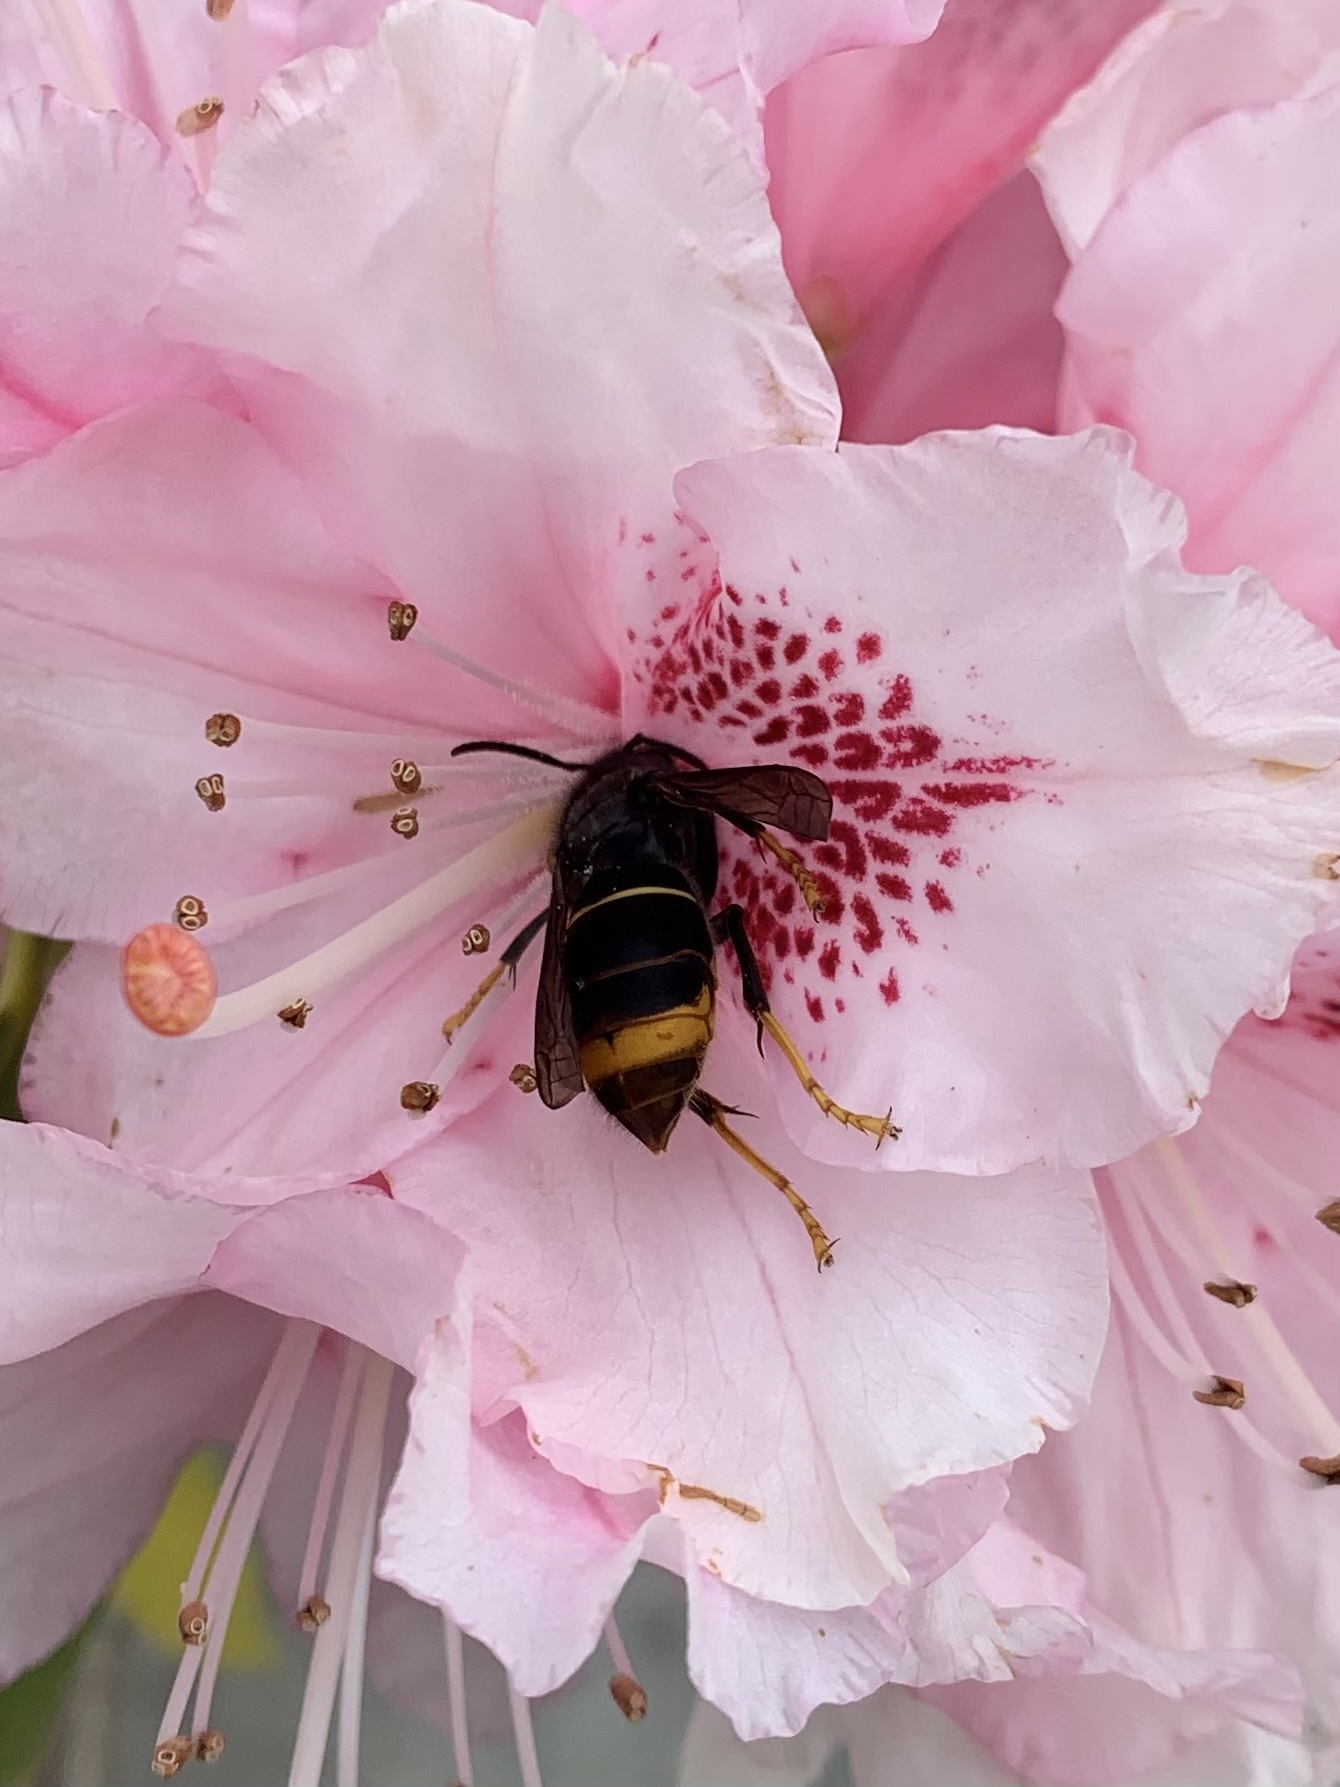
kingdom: Animalia
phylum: Arthropoda
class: Insecta
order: Hymenoptera
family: Vespidae
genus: Vespa
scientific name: Vespa velutina
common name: Asian hornet
